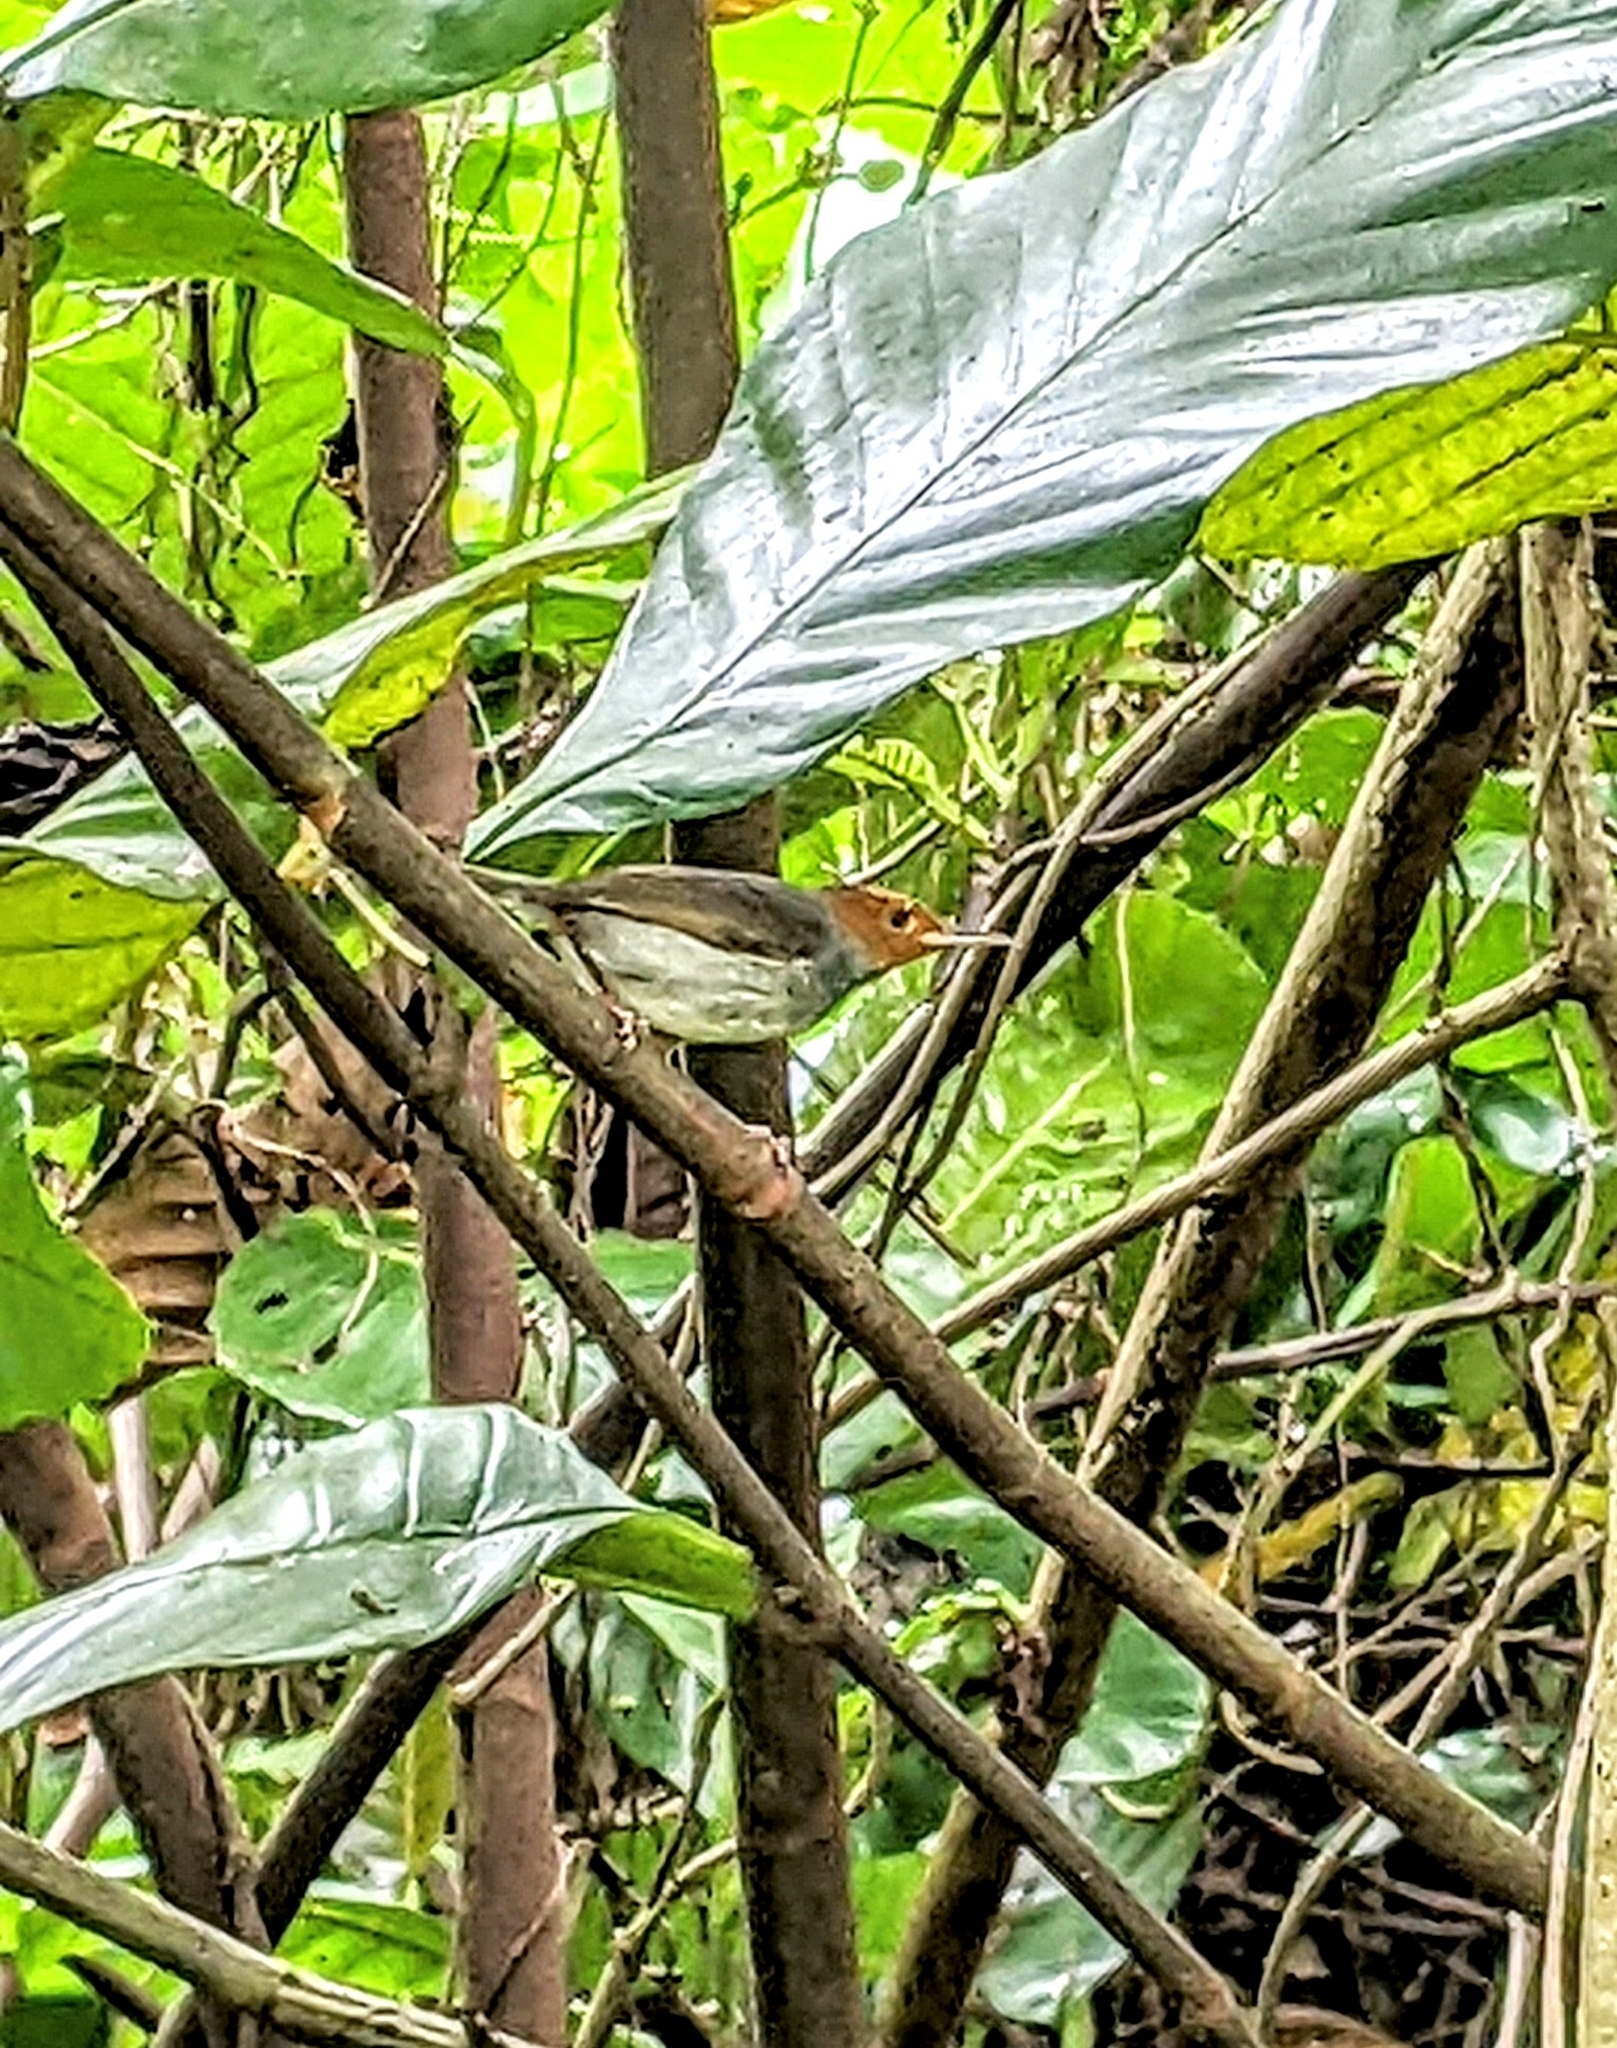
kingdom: Animalia
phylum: Chordata
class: Aves
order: Passeriformes
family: Cisticolidae
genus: Orthotomus
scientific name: Orthotomus ruficeps
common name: Ashy tailorbird
